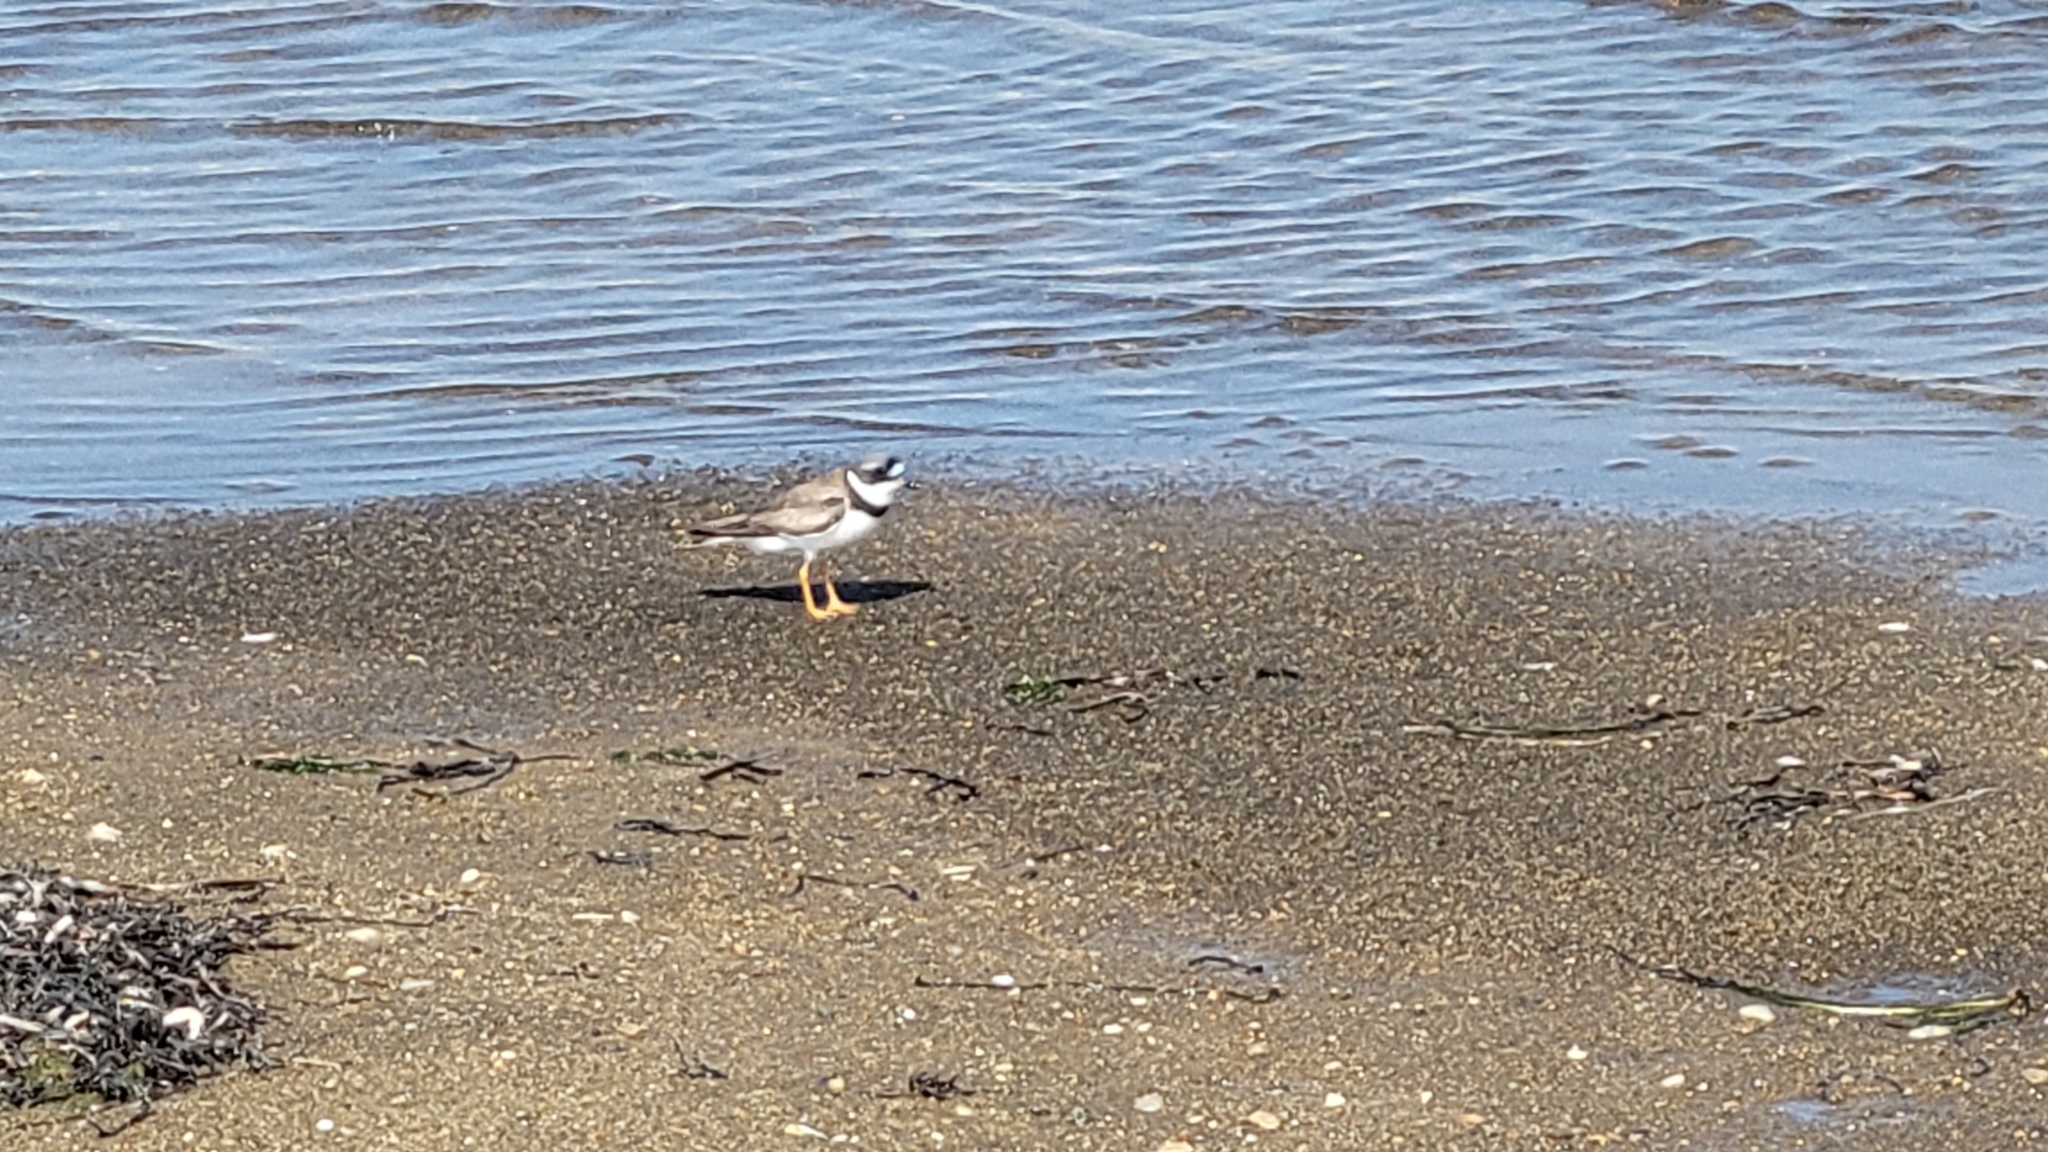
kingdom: Animalia
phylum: Chordata
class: Aves
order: Charadriiformes
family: Charadriidae
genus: Charadrius
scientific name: Charadrius semipalmatus
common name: Semipalmated plover
